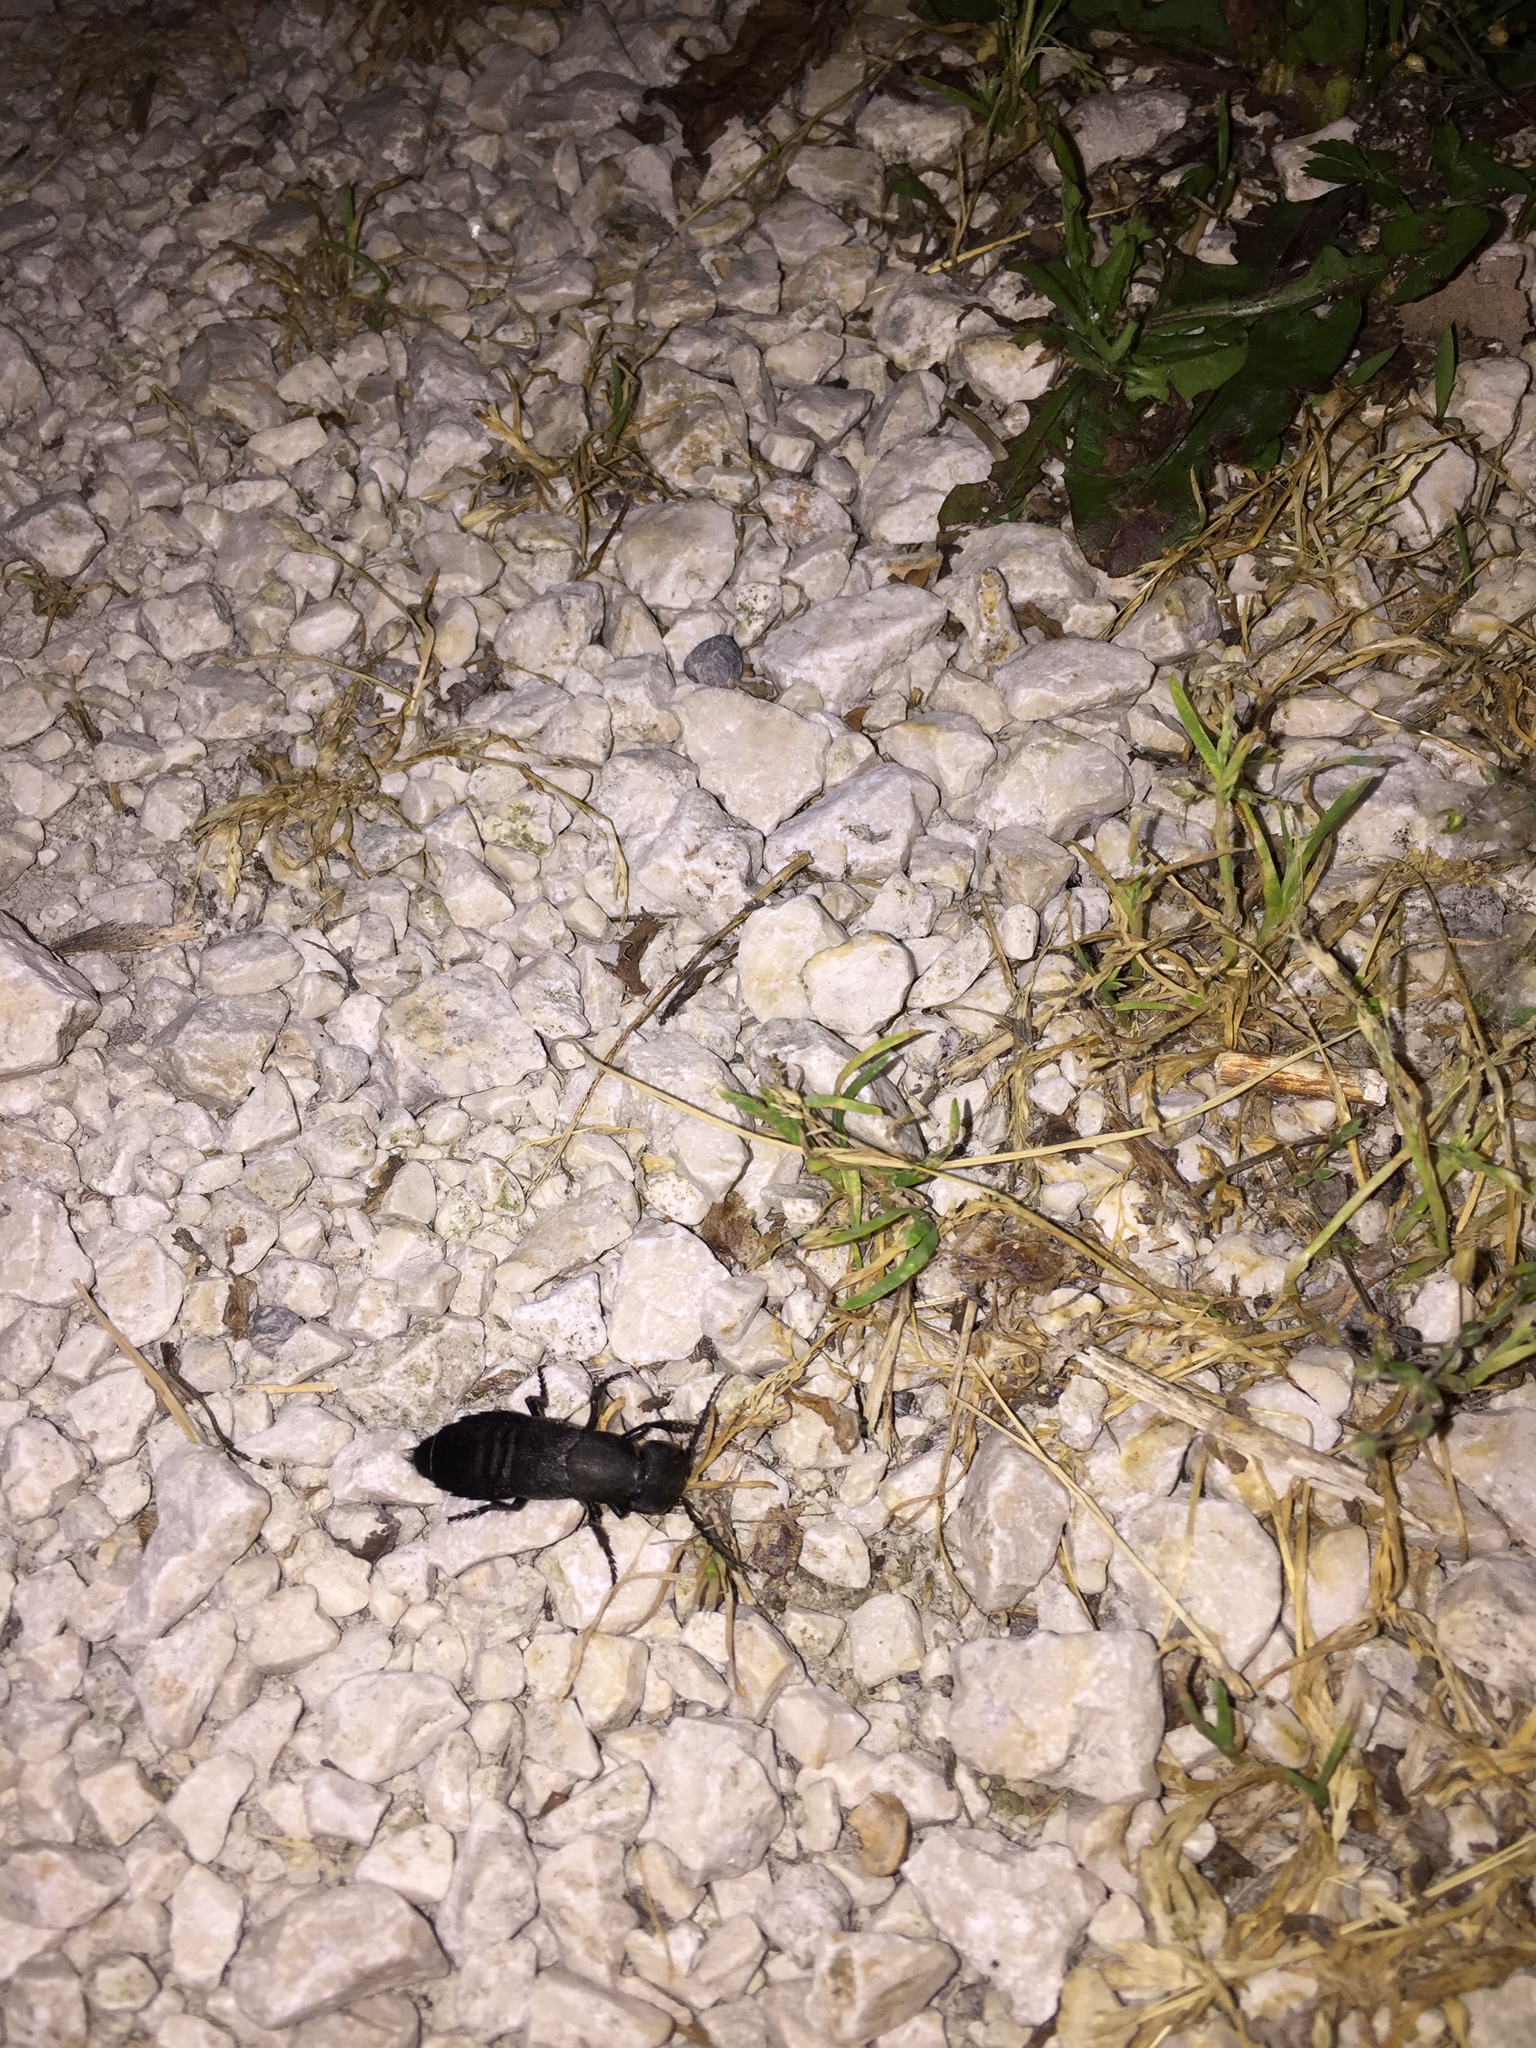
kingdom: Animalia
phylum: Arthropoda
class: Insecta
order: Coleoptera
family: Staphylinidae
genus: Ocypus
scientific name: Ocypus olens
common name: Devil's coach-horse
